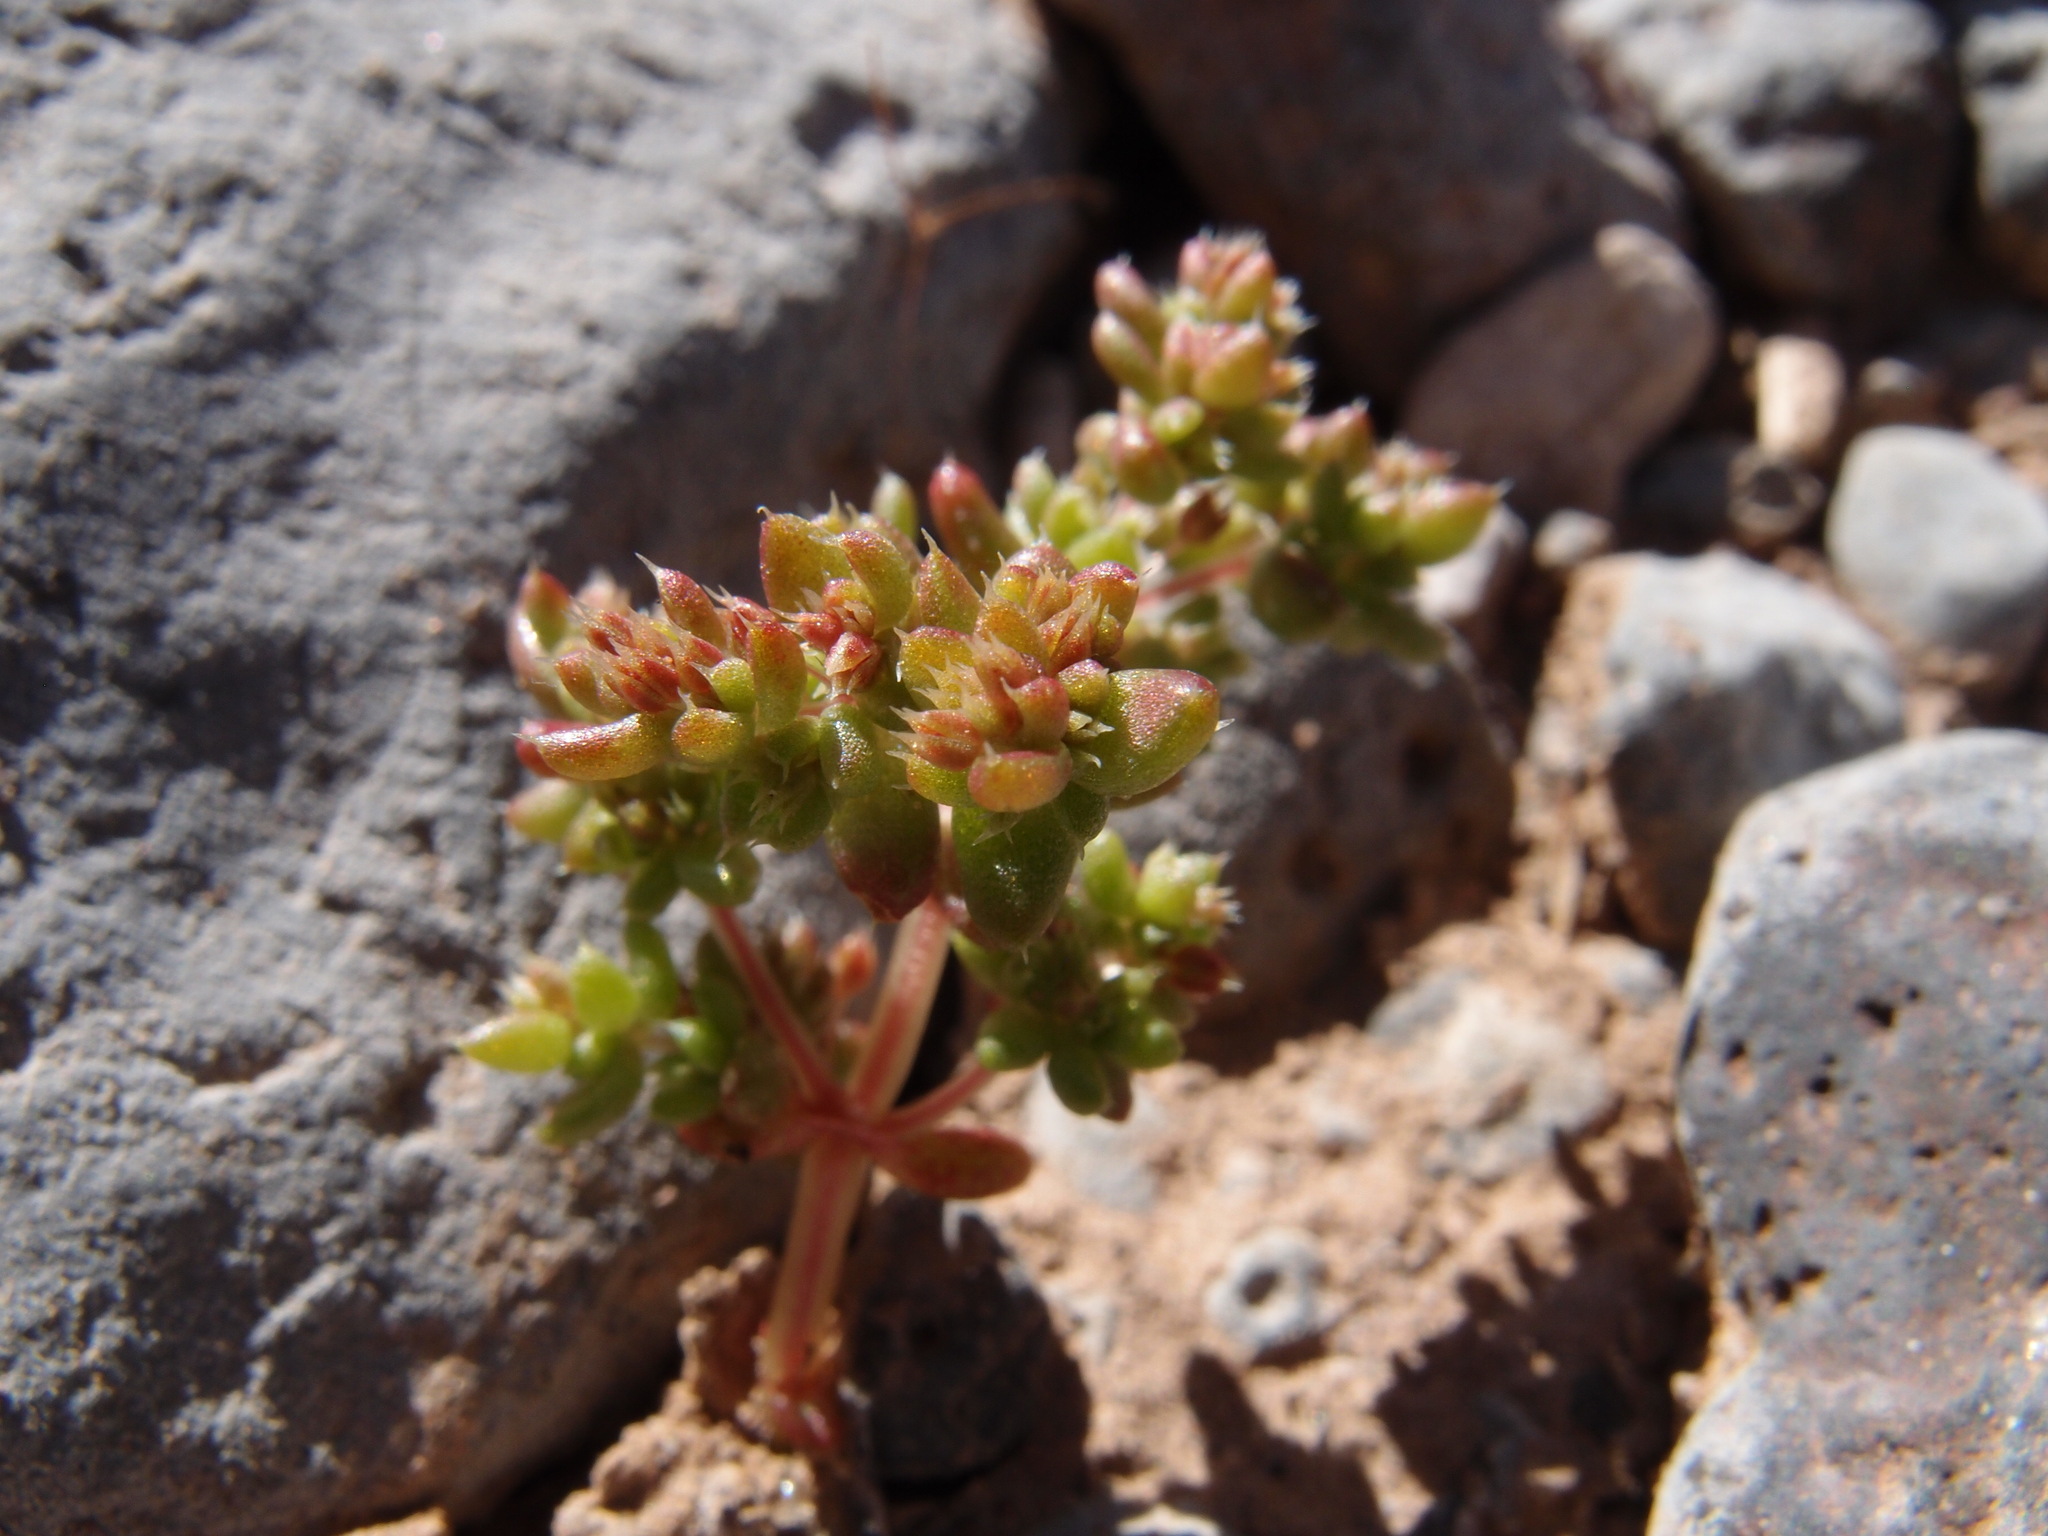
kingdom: Plantae
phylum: Tracheophyta
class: Magnoliopsida
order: Saxifragales
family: Crassulaceae
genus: Crassula
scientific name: Crassula connata
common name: Erect pygmyweed
